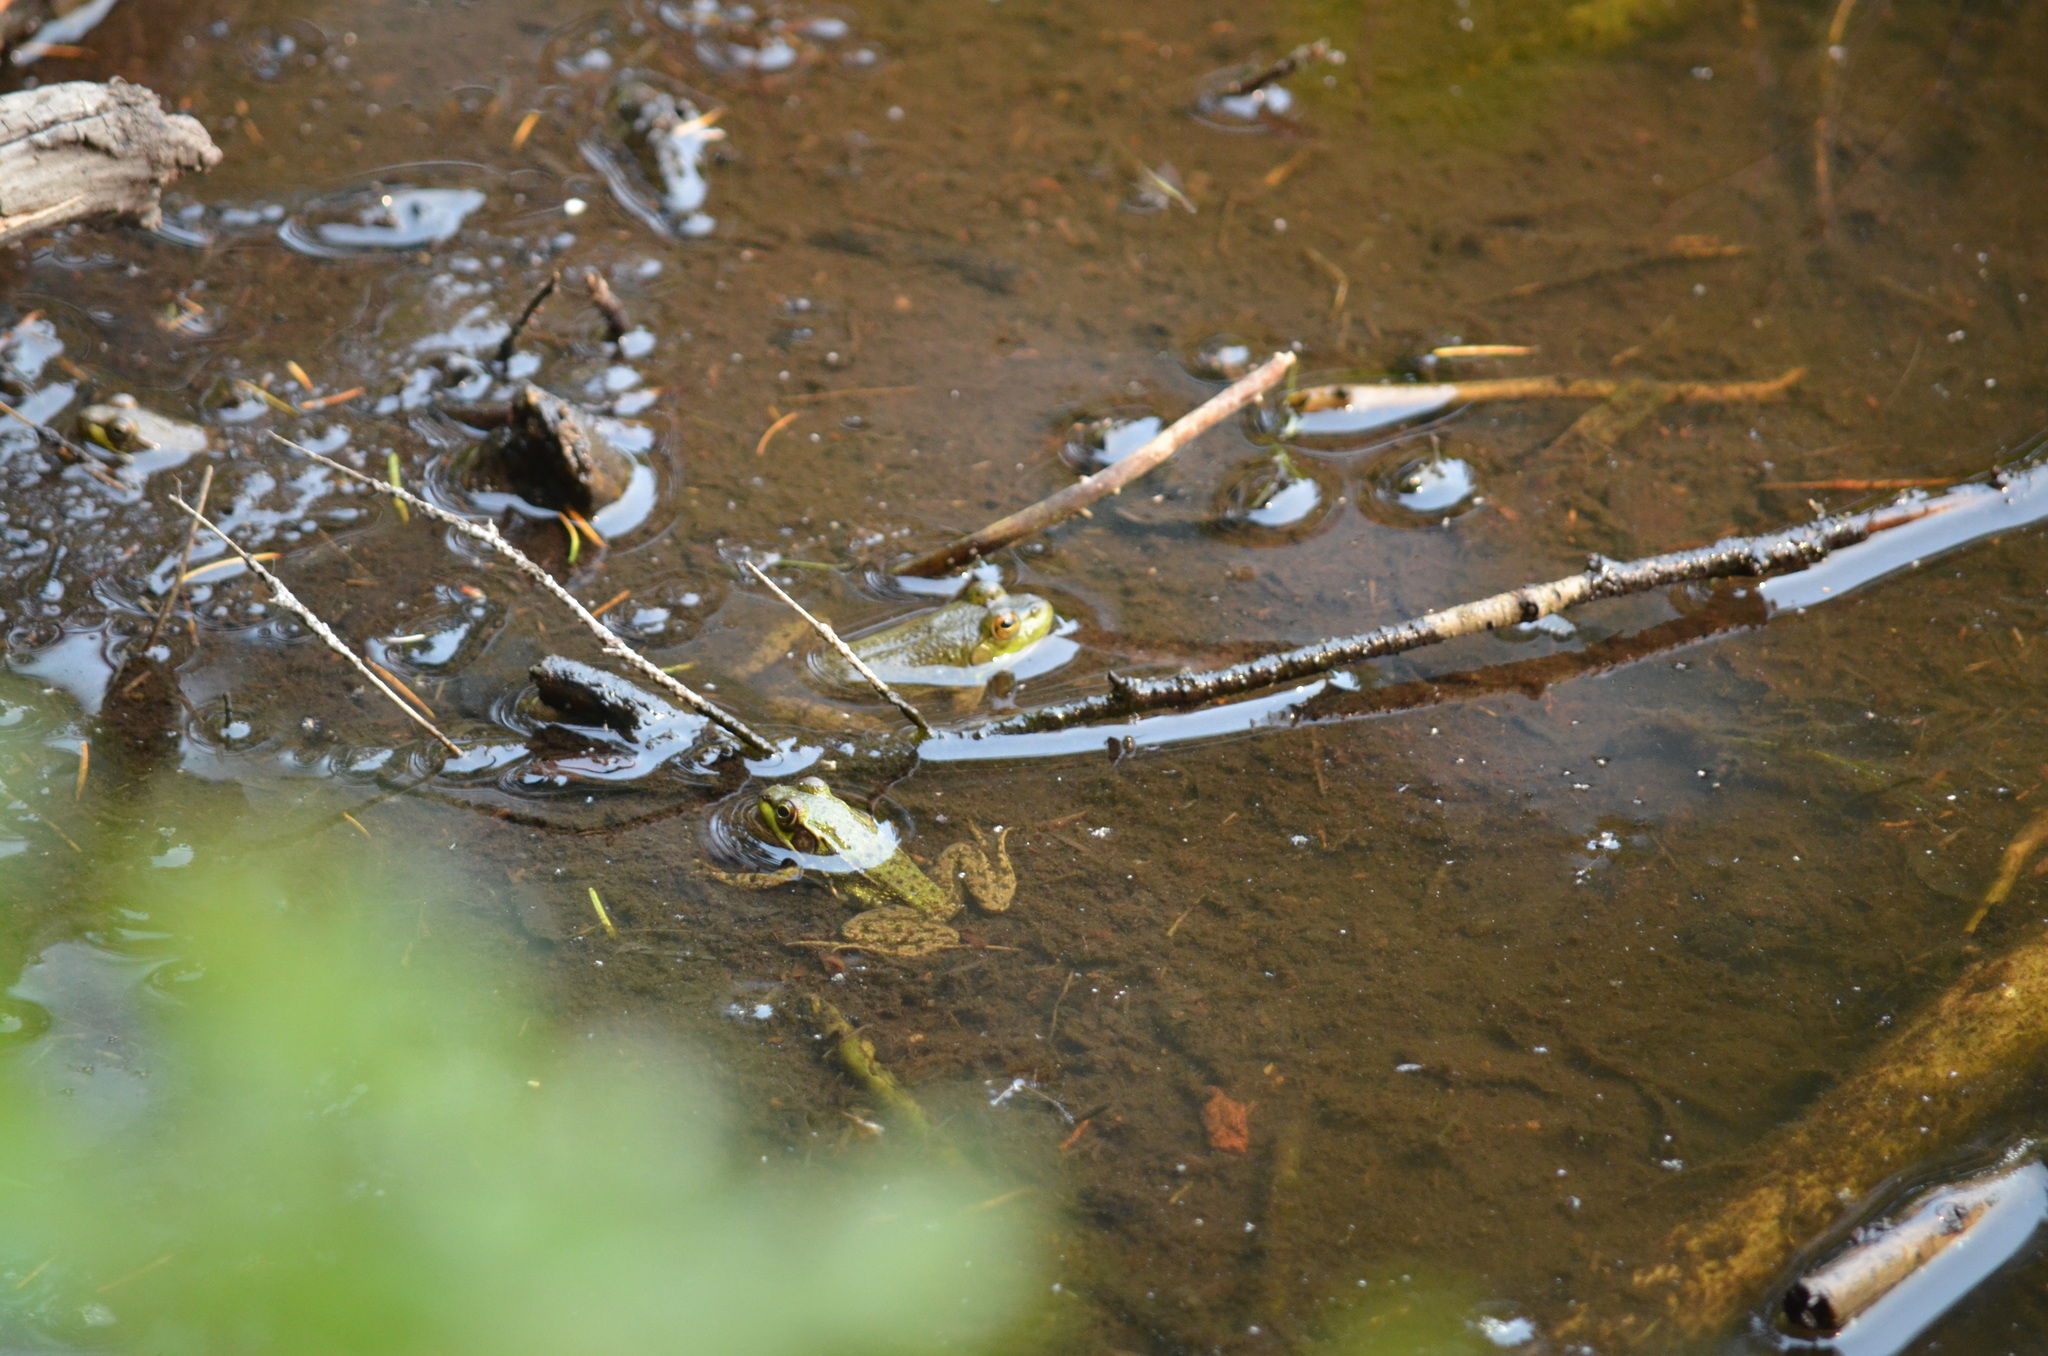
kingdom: Animalia
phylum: Chordata
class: Amphibia
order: Anura
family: Ranidae
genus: Lithobates
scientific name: Lithobates clamitans
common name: Green frog
